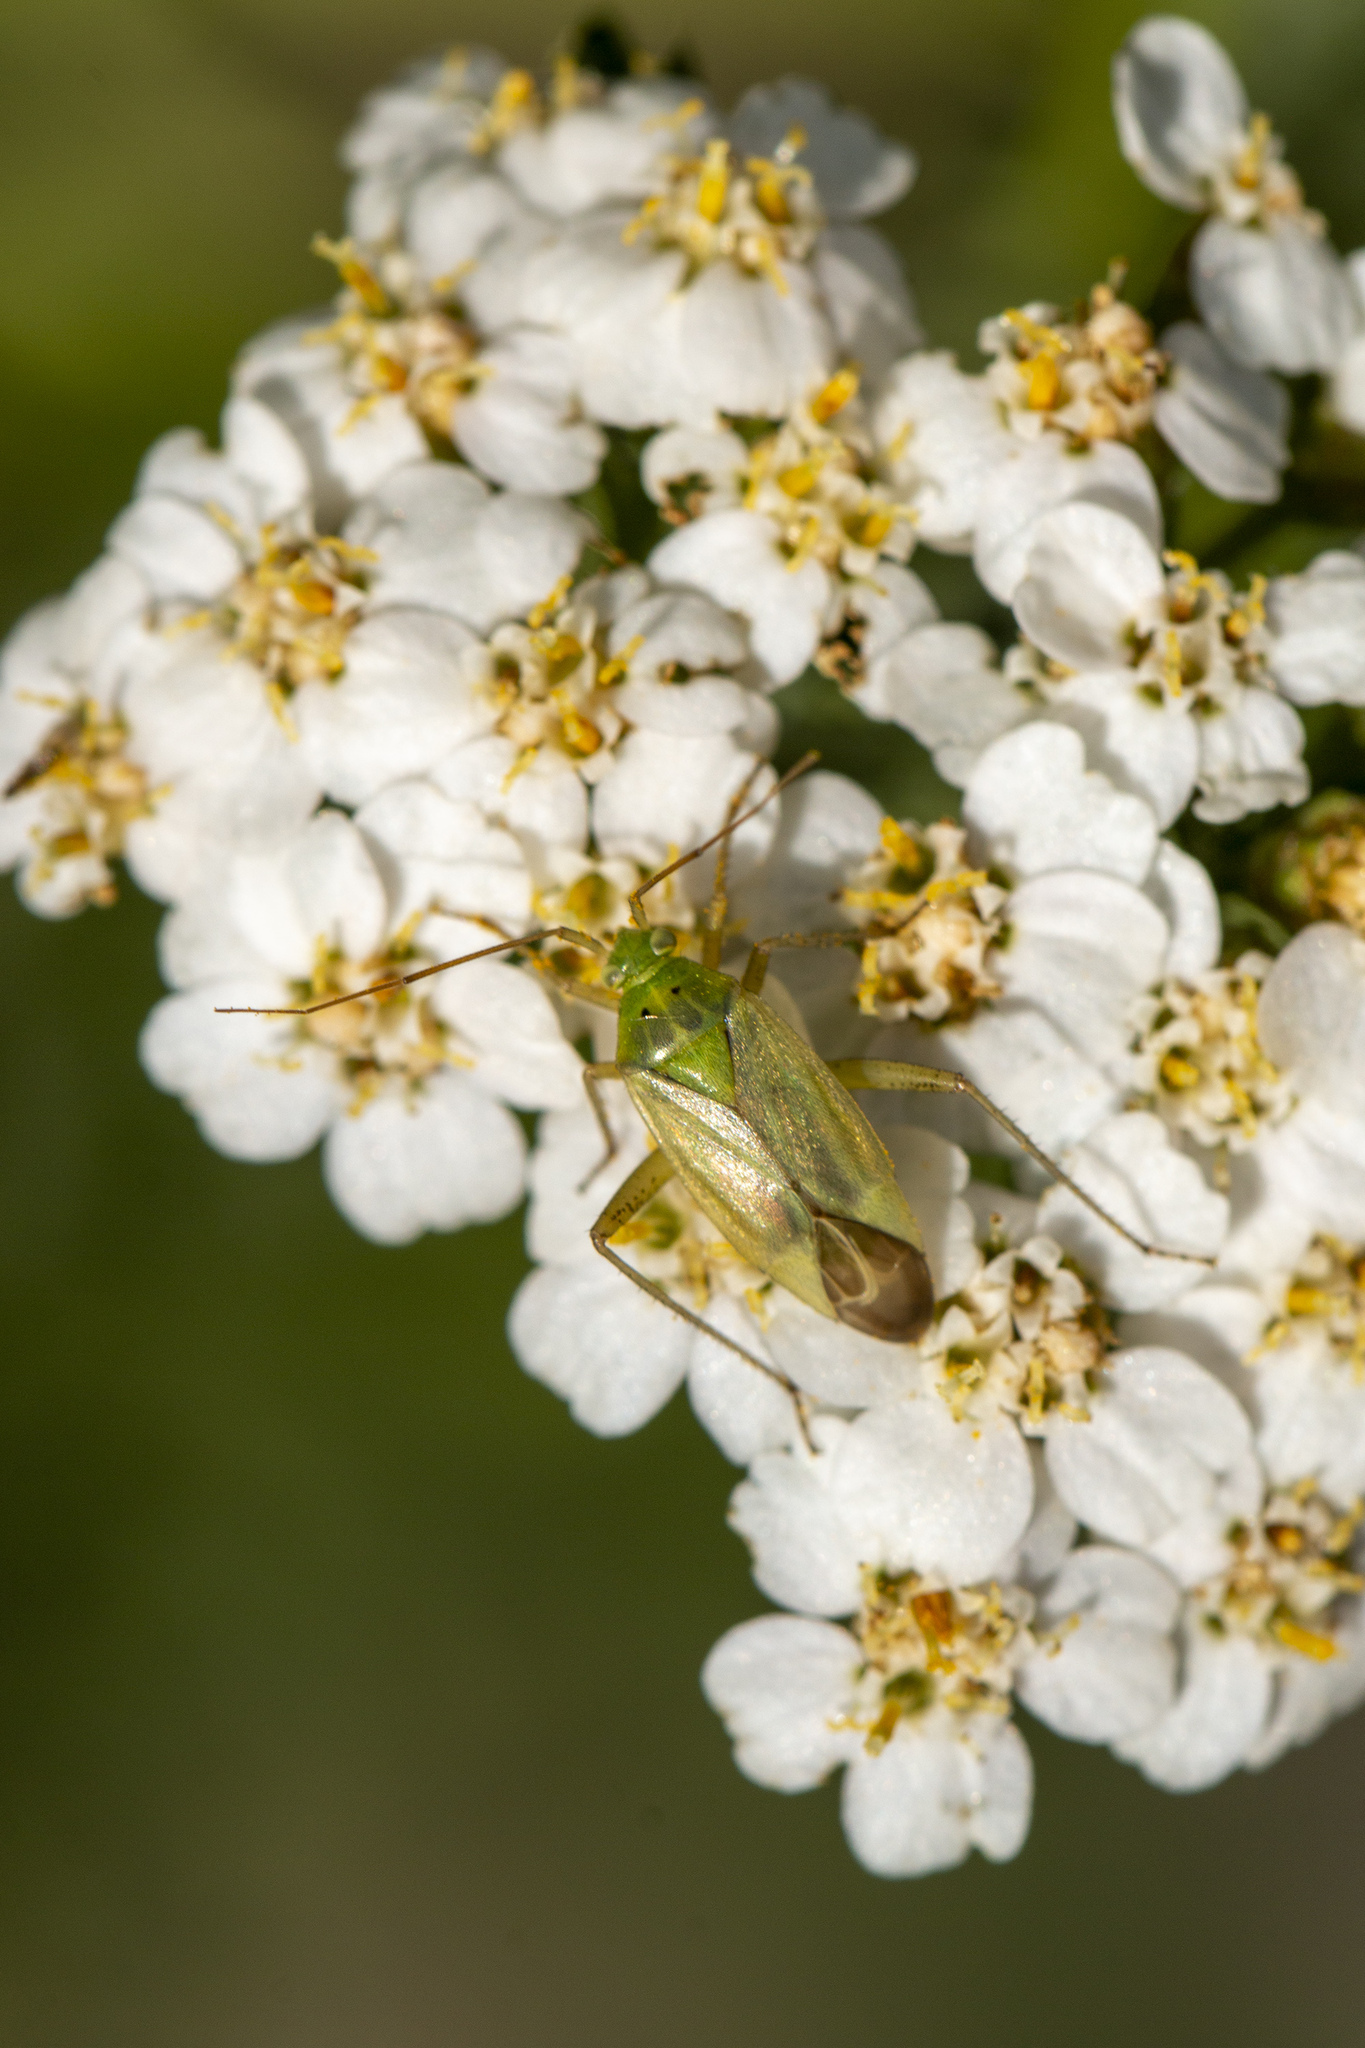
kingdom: Animalia
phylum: Arthropoda
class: Insecta
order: Hemiptera
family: Miridae
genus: Closterotomus
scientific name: Closterotomus norvegicus
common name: Plant bug
